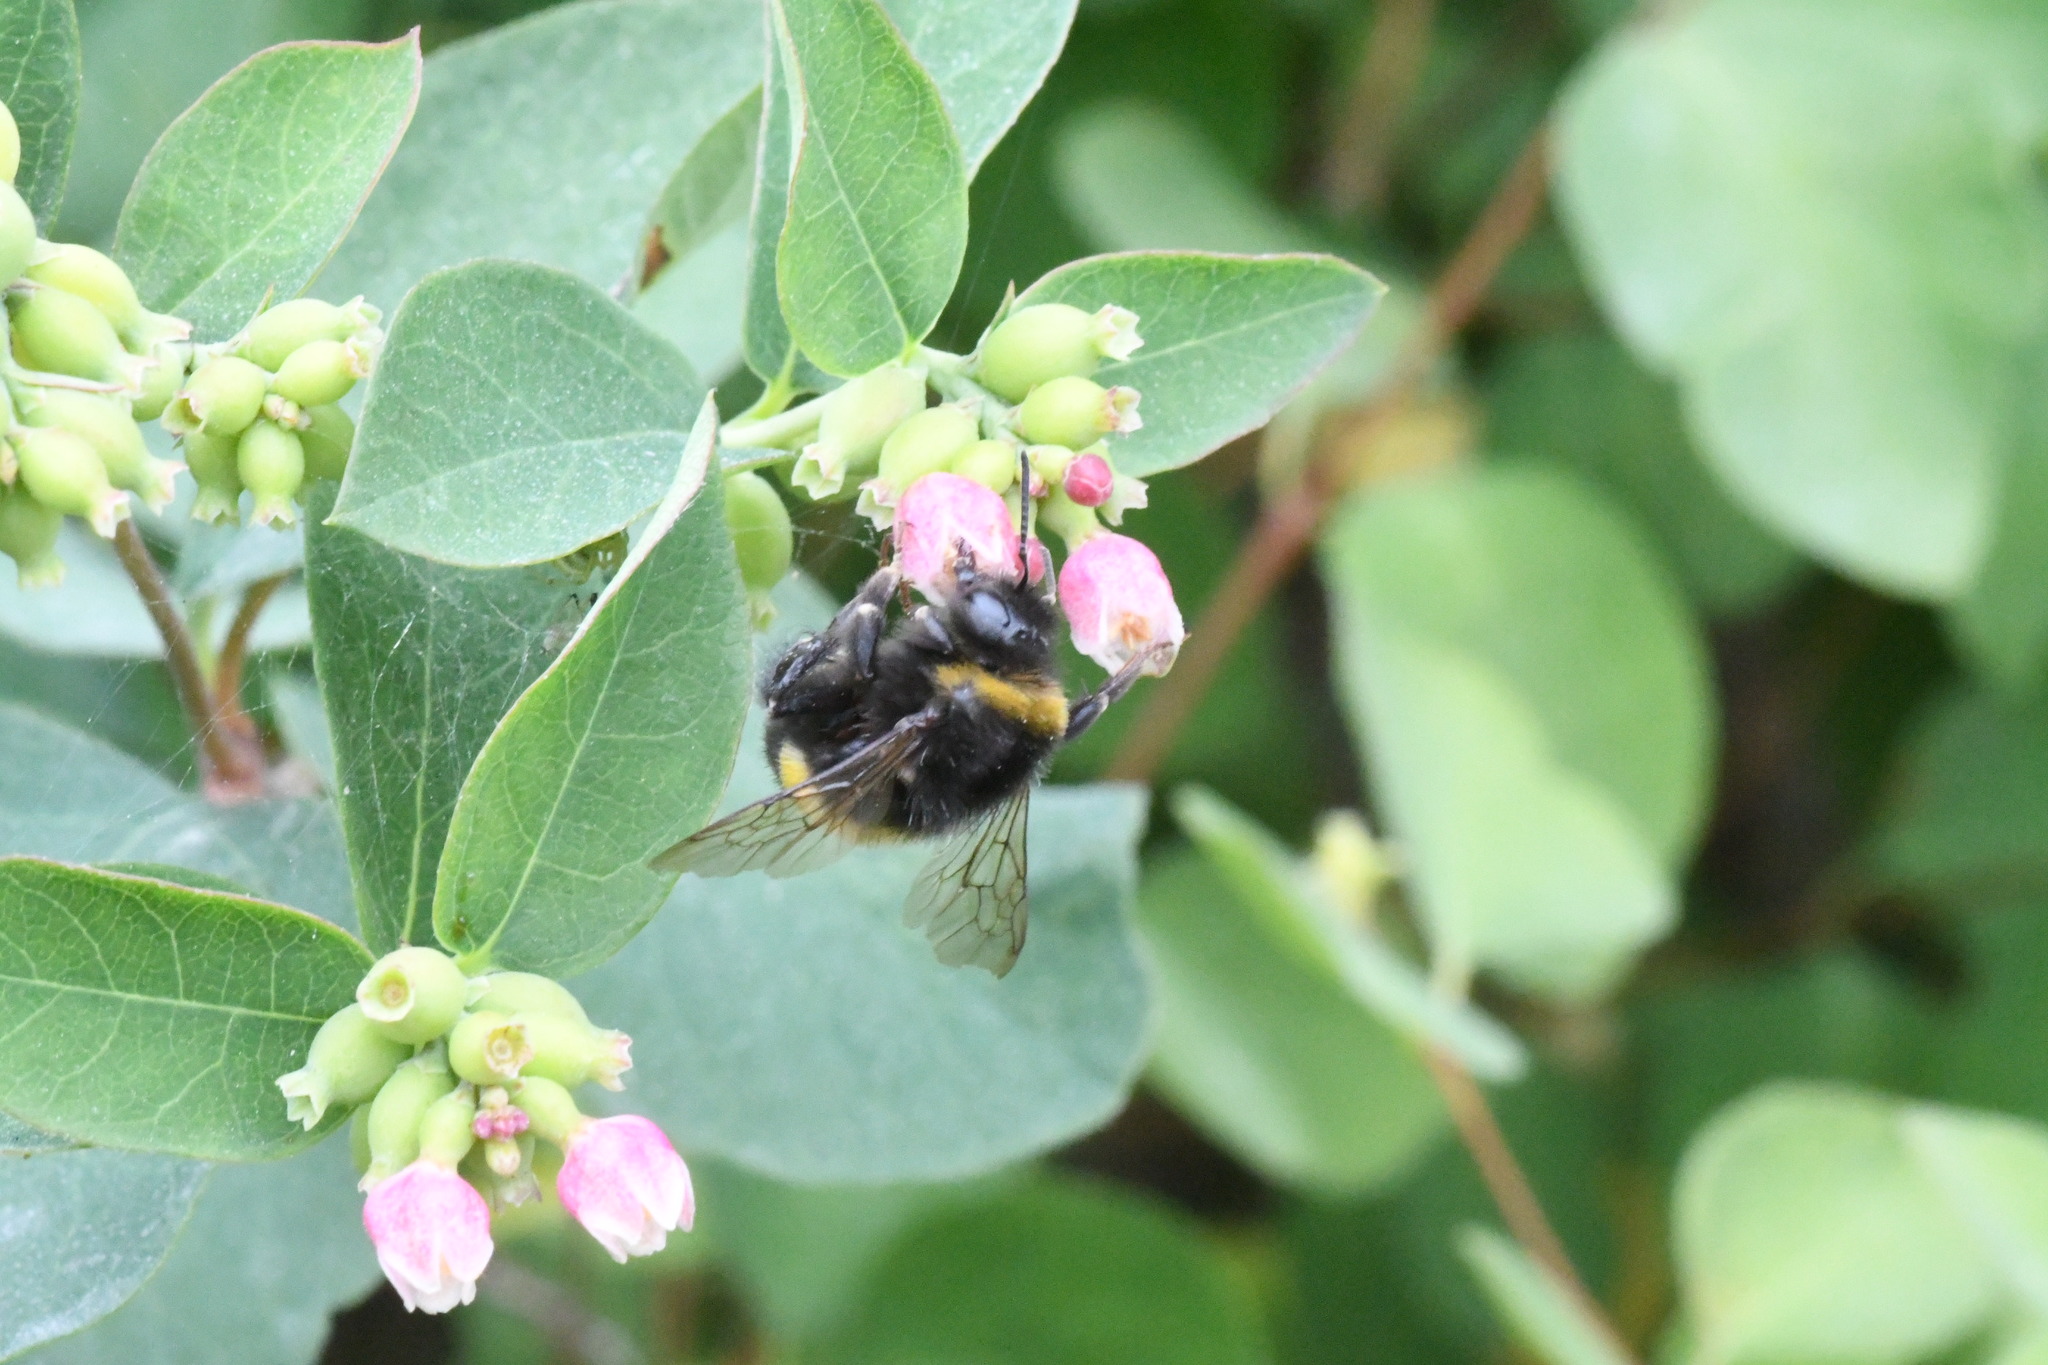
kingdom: Animalia
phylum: Arthropoda
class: Insecta
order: Hymenoptera
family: Apidae
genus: Bombus
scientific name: Bombus
